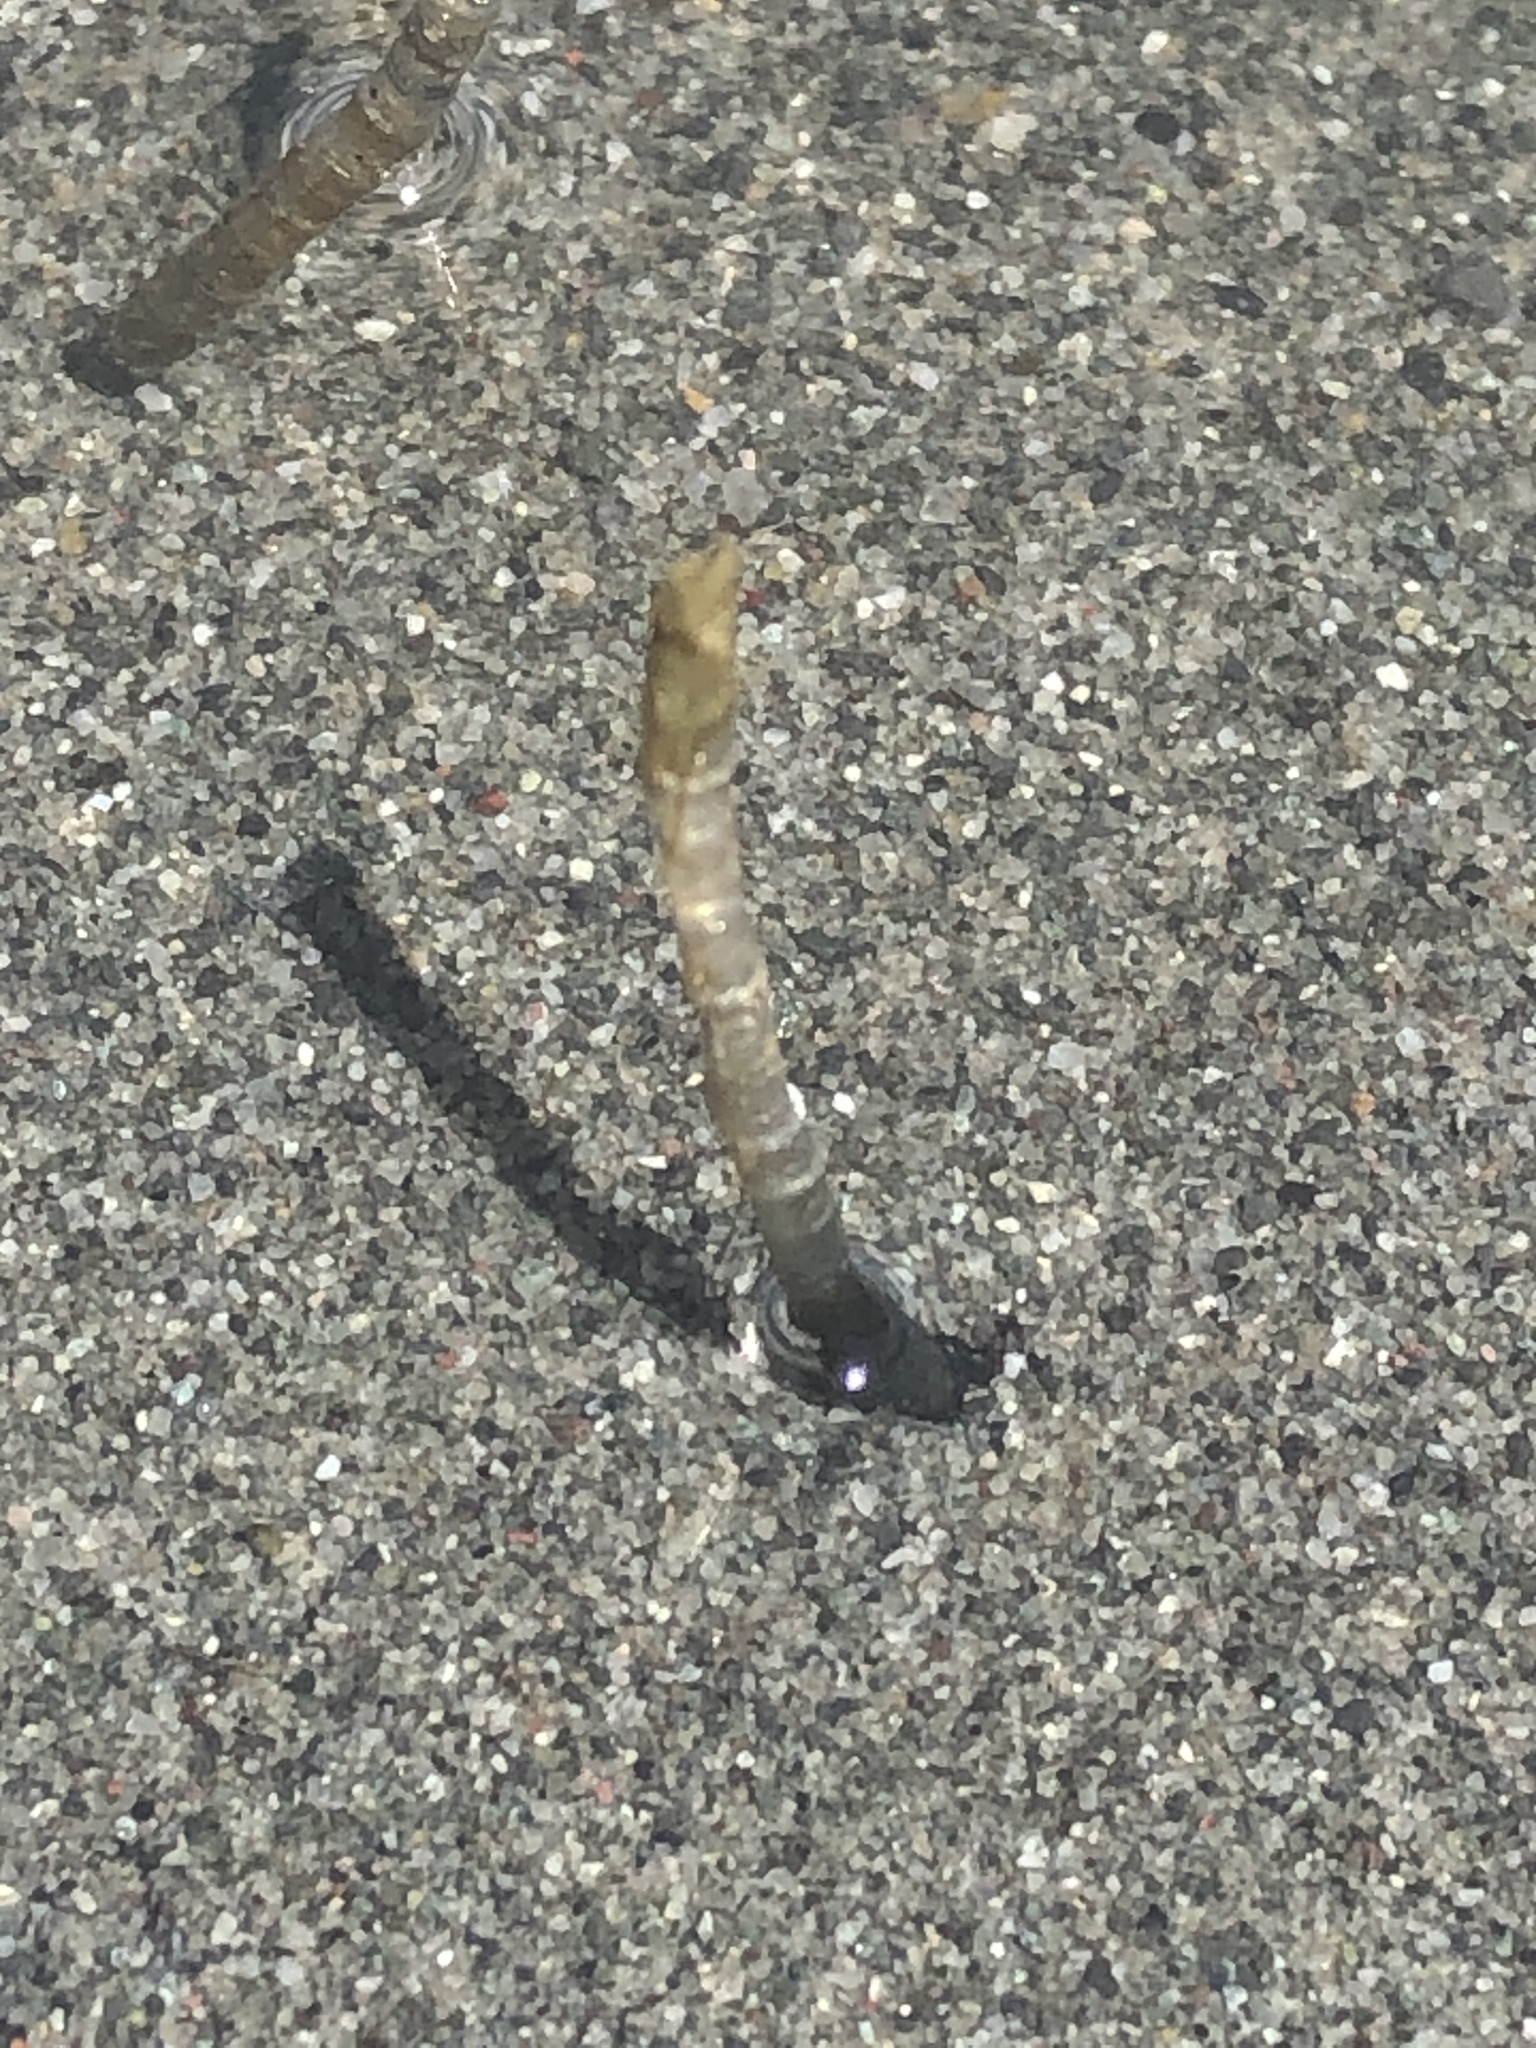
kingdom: Animalia
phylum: Annelida
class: Polychaeta
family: Chaetopteridae
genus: Spiochaetopterus
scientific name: Spiochaetopterus costarum
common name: Glassy tubeworm
